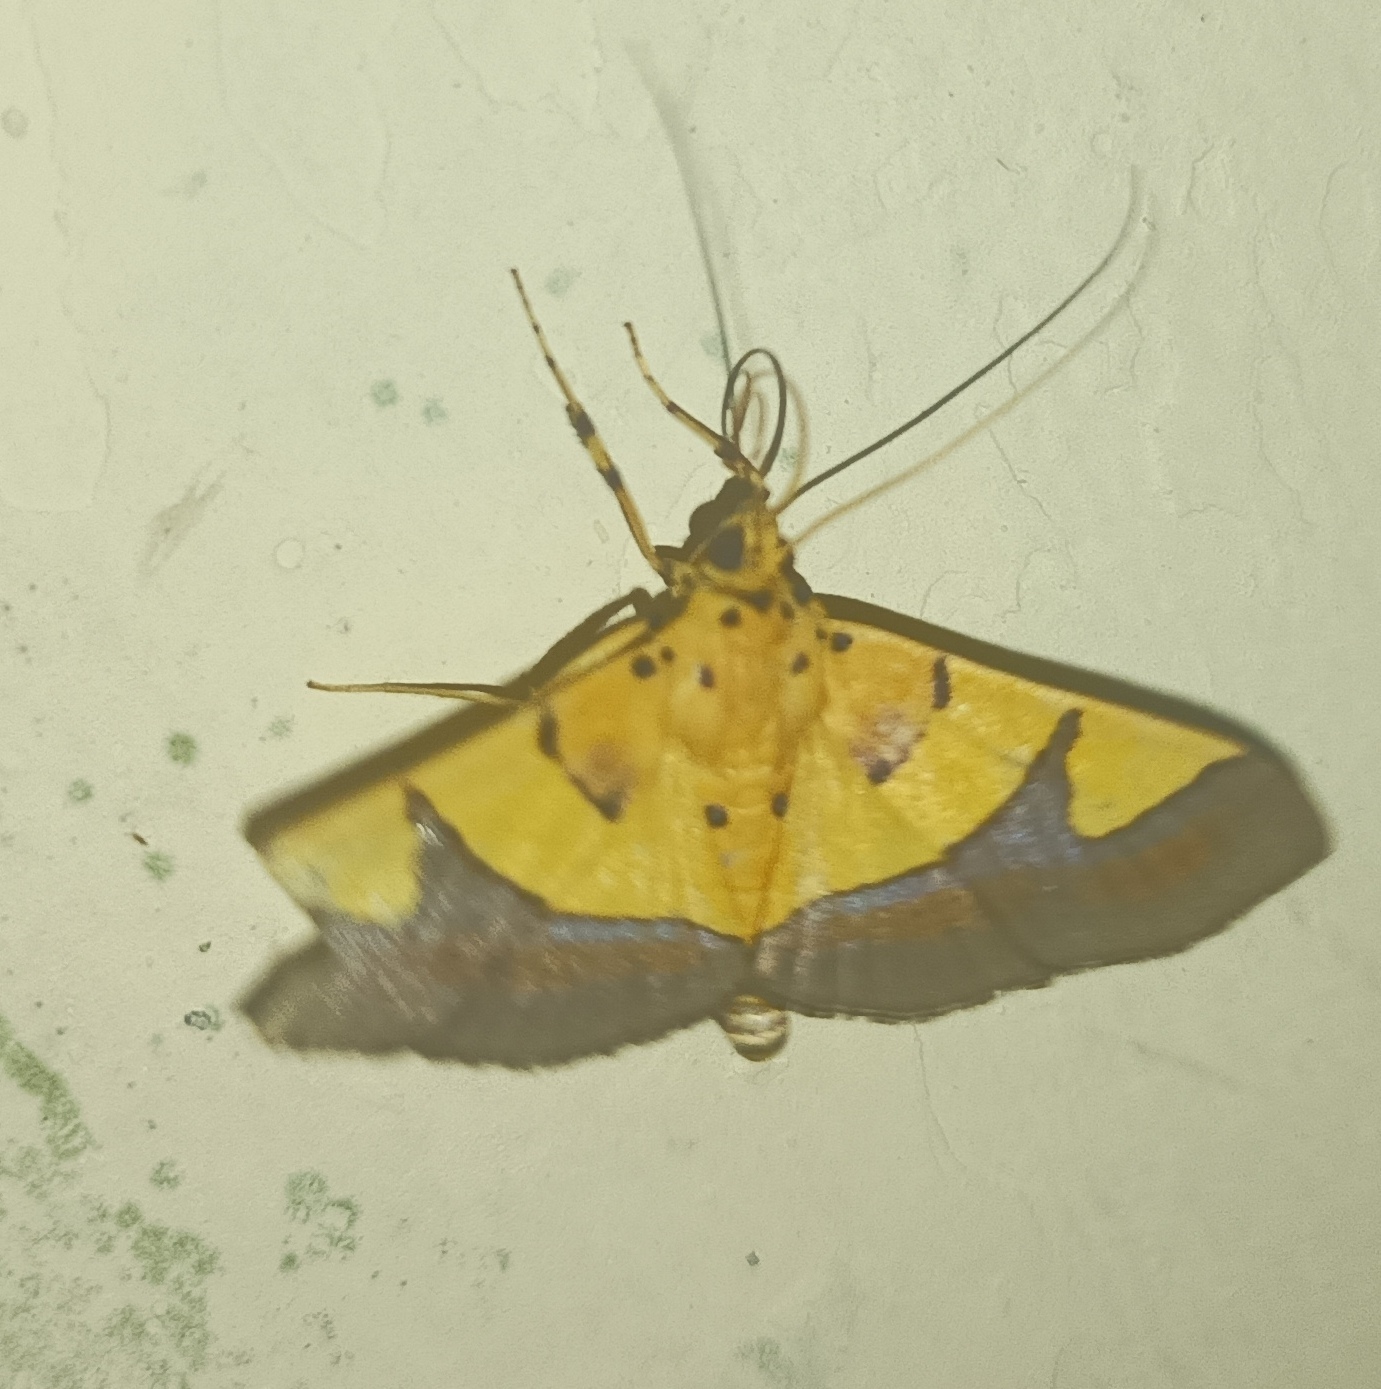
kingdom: Animalia
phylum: Arthropoda
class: Insecta
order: Lepidoptera
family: Crambidae
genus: Botyodes
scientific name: Botyodes
